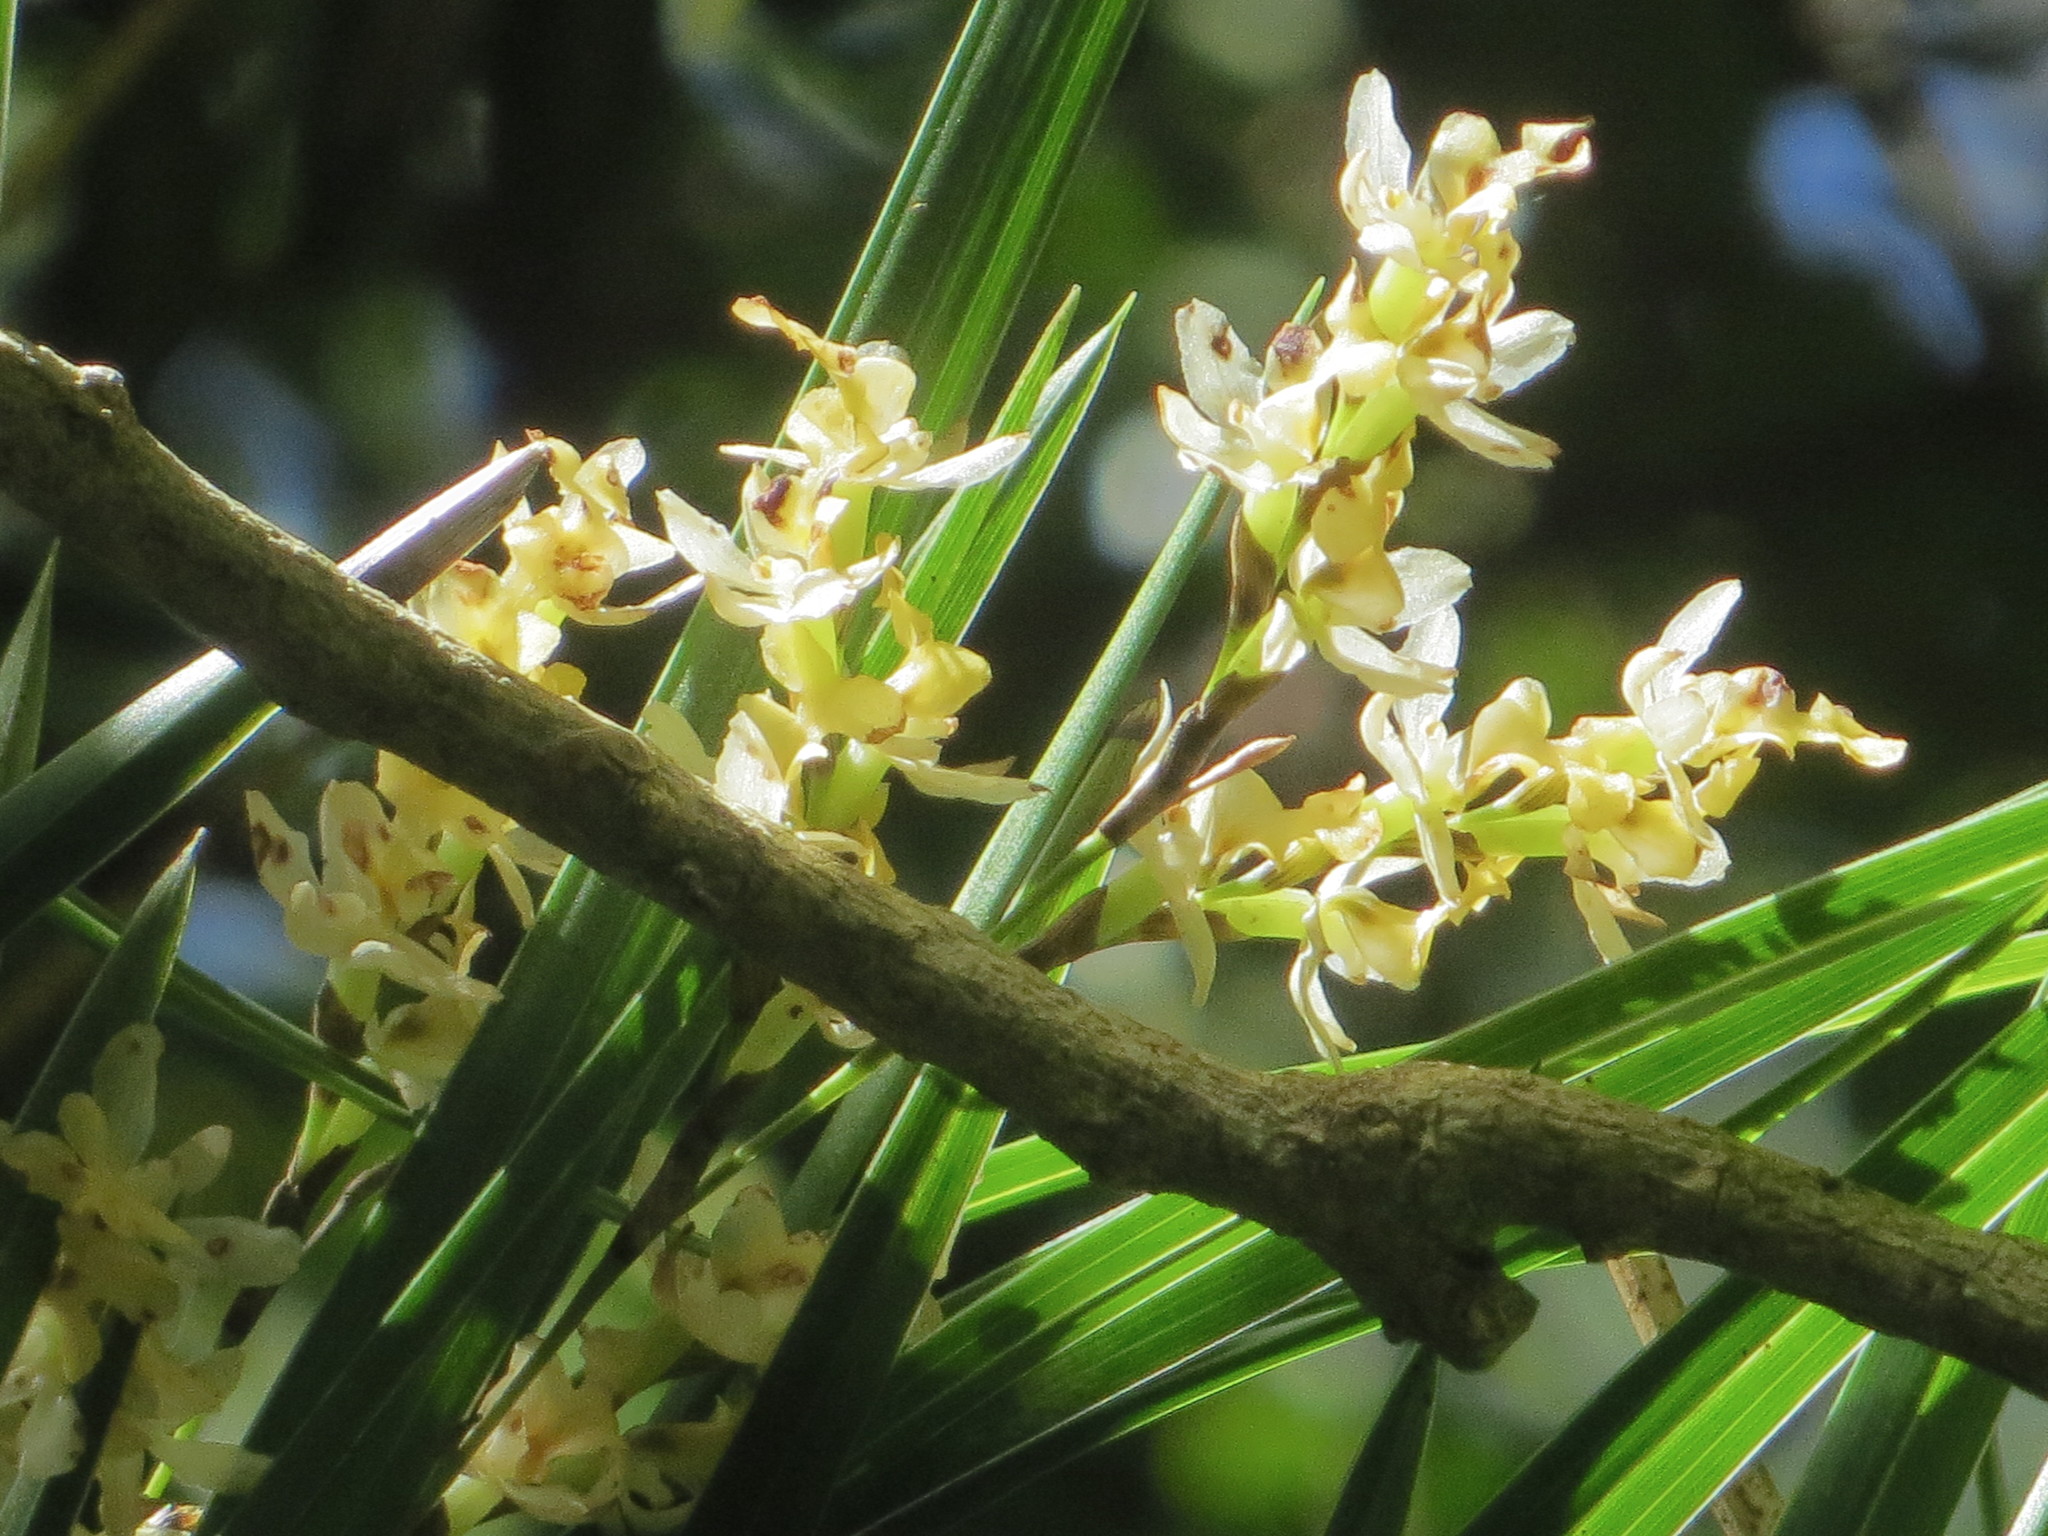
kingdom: Plantae
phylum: Tracheophyta
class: Liliopsida
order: Asparagales
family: Orchidaceae
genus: Earina
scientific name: Earina mucronata
